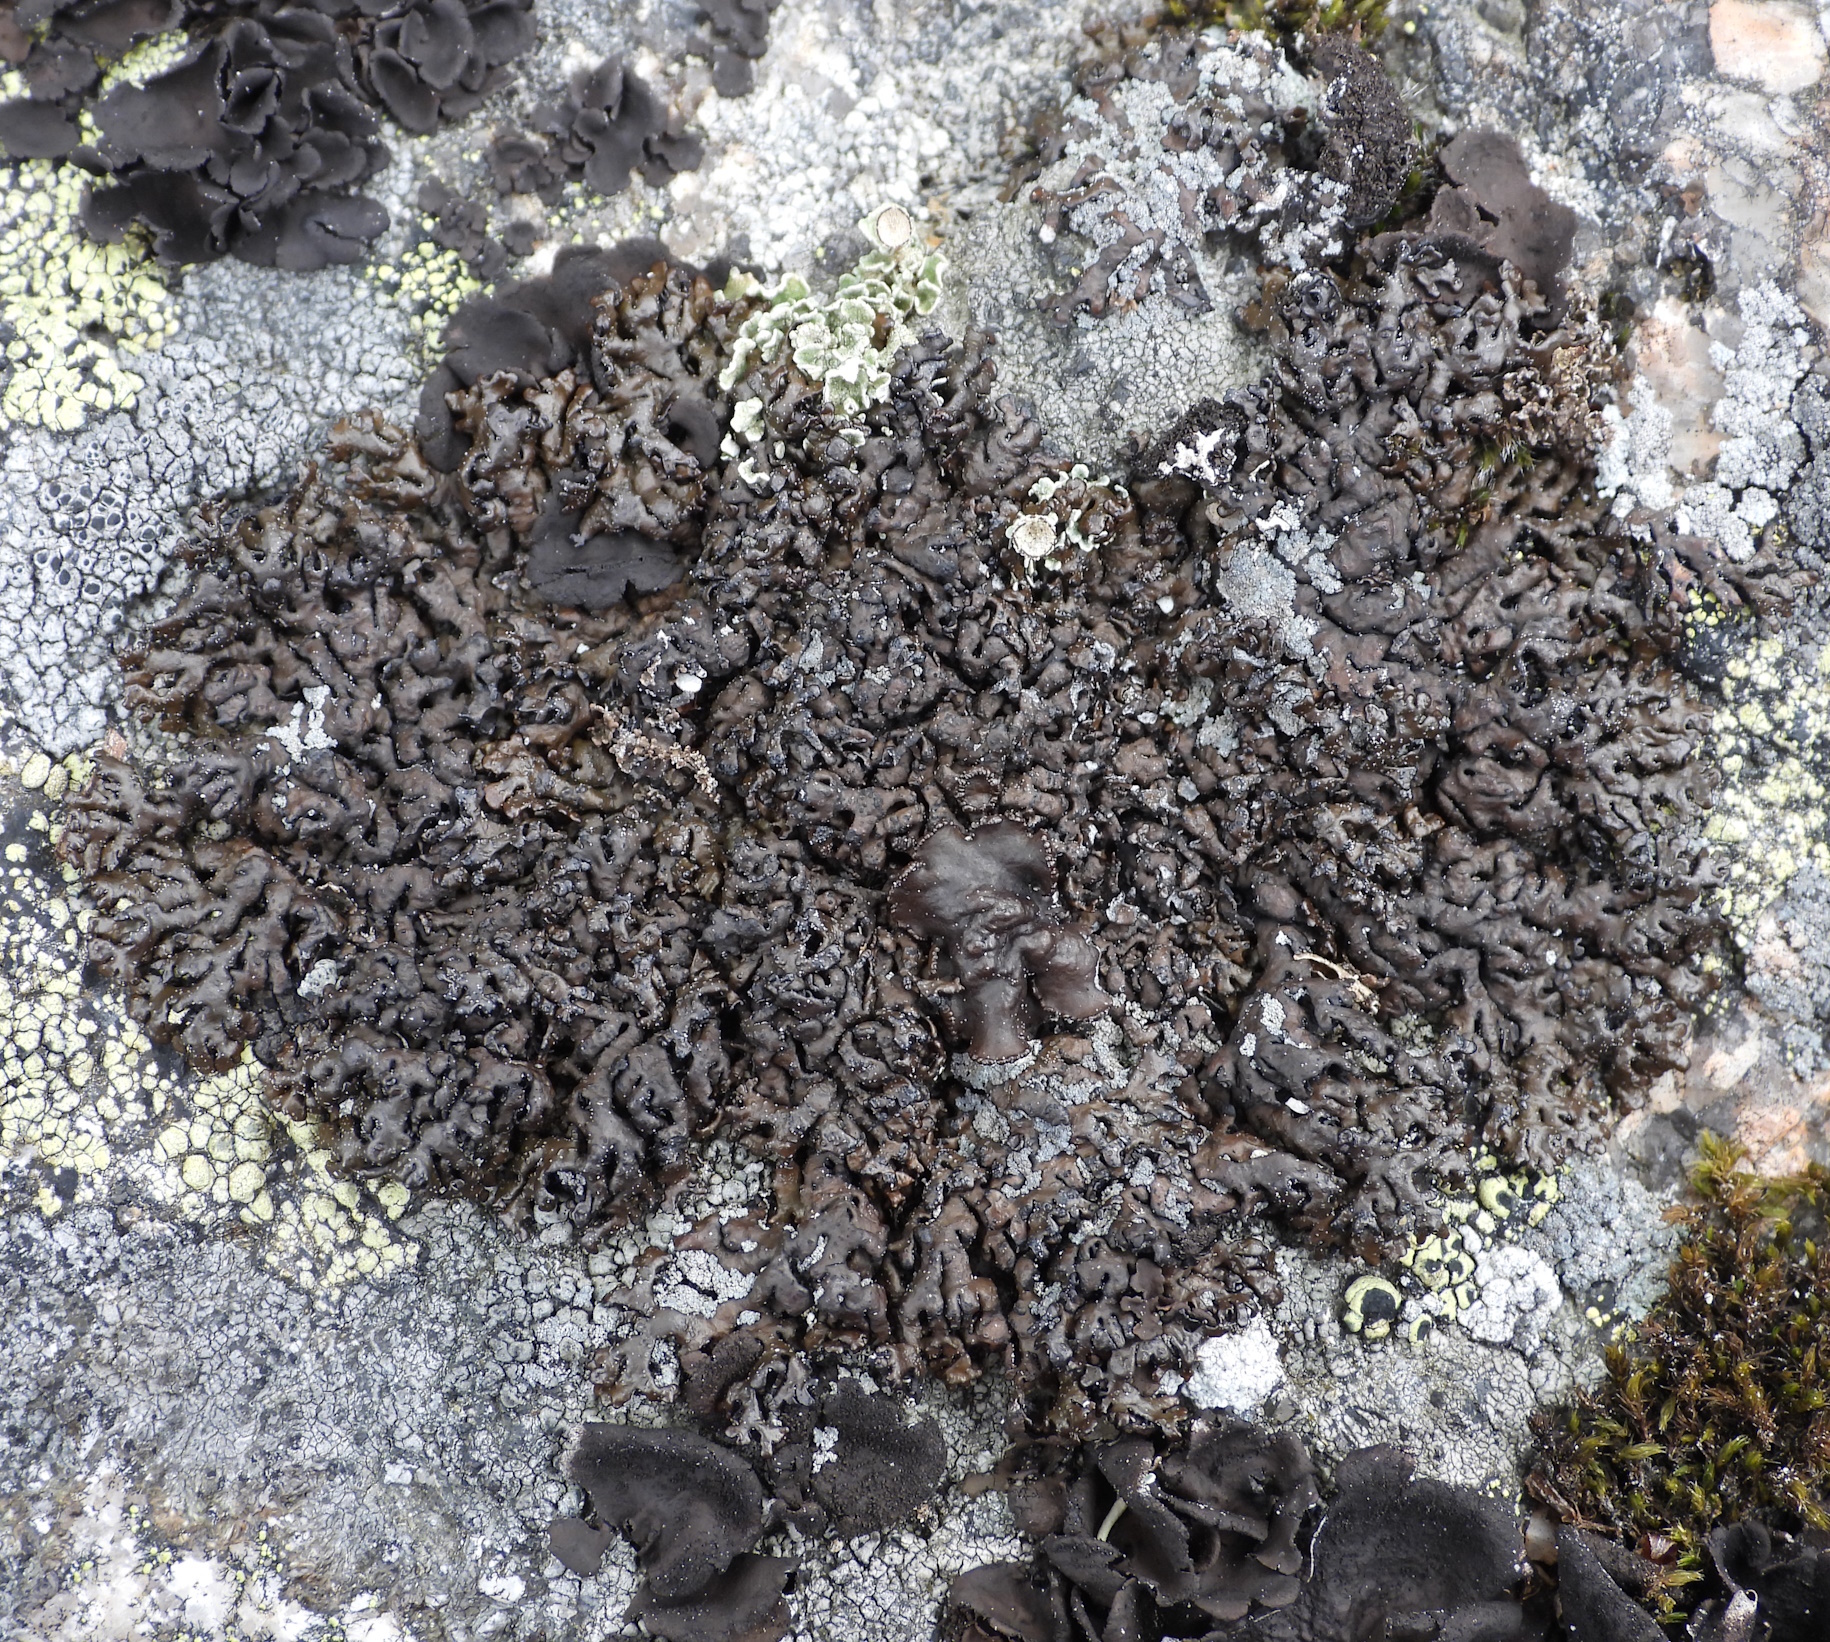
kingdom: Fungi
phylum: Ascomycota
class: Lecanoromycetes
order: Lecanorales
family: Parmeliaceae
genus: Melanelia
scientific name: Melanelia stygia
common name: Alpine camouflage lichen
